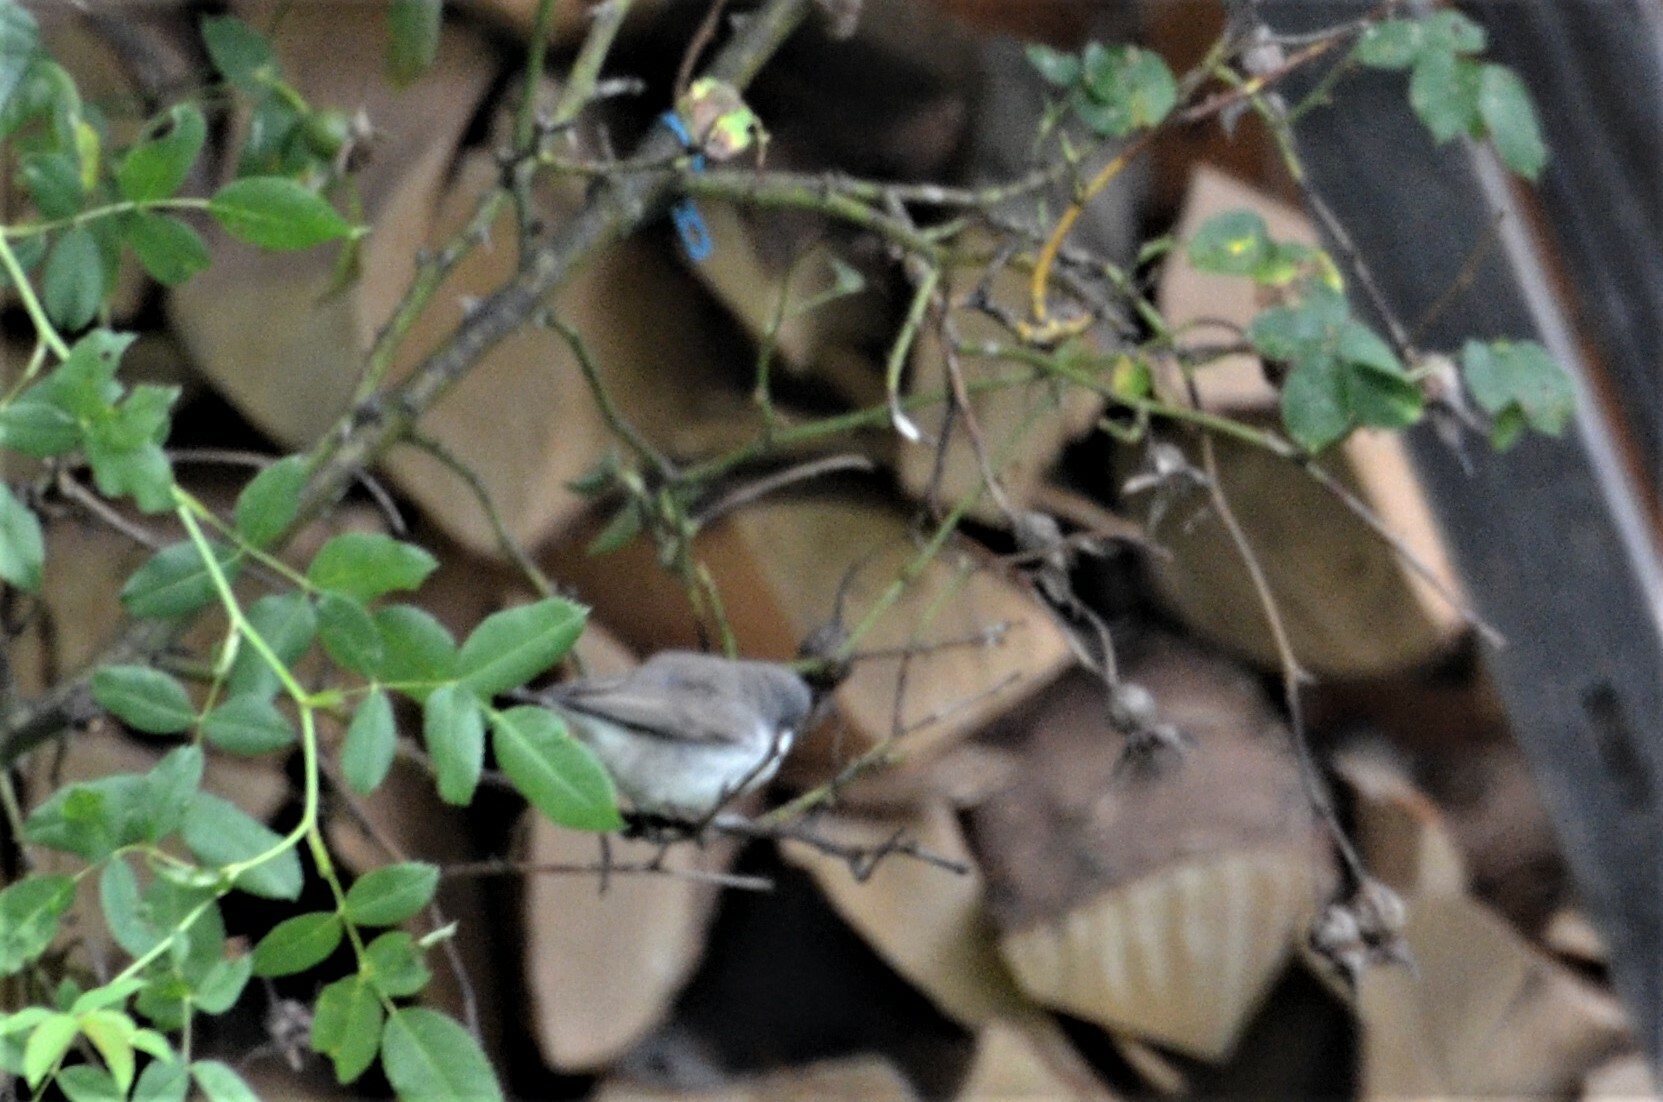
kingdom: Animalia
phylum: Chordata
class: Aves
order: Passeriformes
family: Sylviidae
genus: Sylvia
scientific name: Sylvia curruca
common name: Lesser whitethroat
